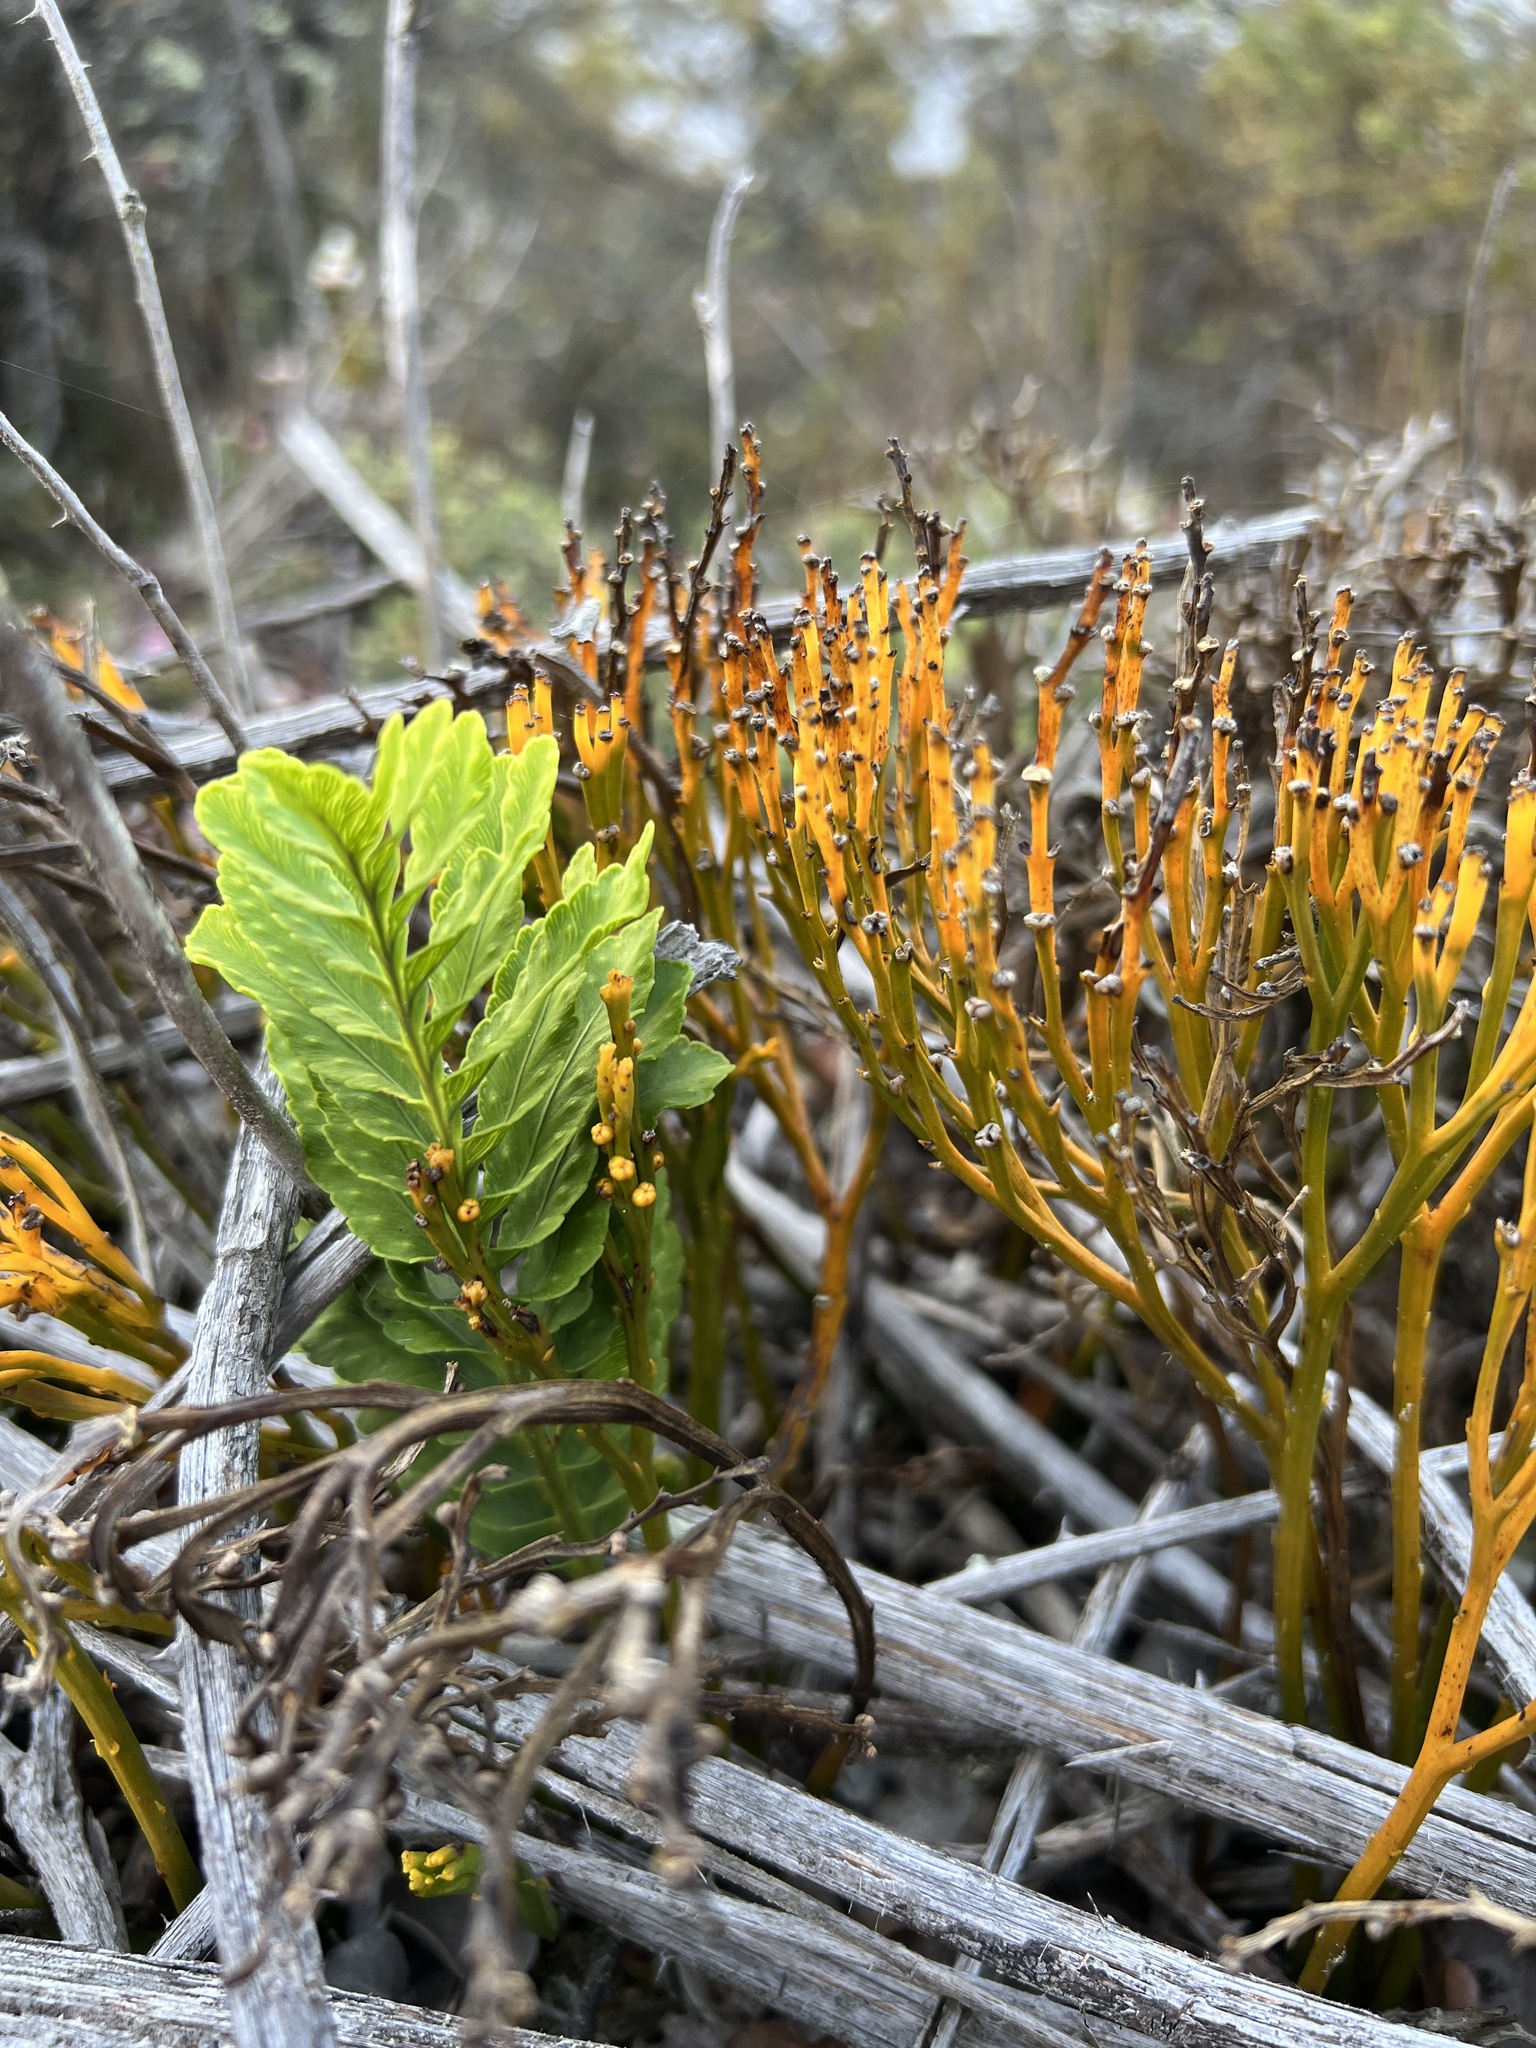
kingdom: Plantae
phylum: Tracheophyta
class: Polypodiopsida
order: Polypodiales
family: Polypodiaceae
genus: Polypodium
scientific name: Polypodium pellucidum
